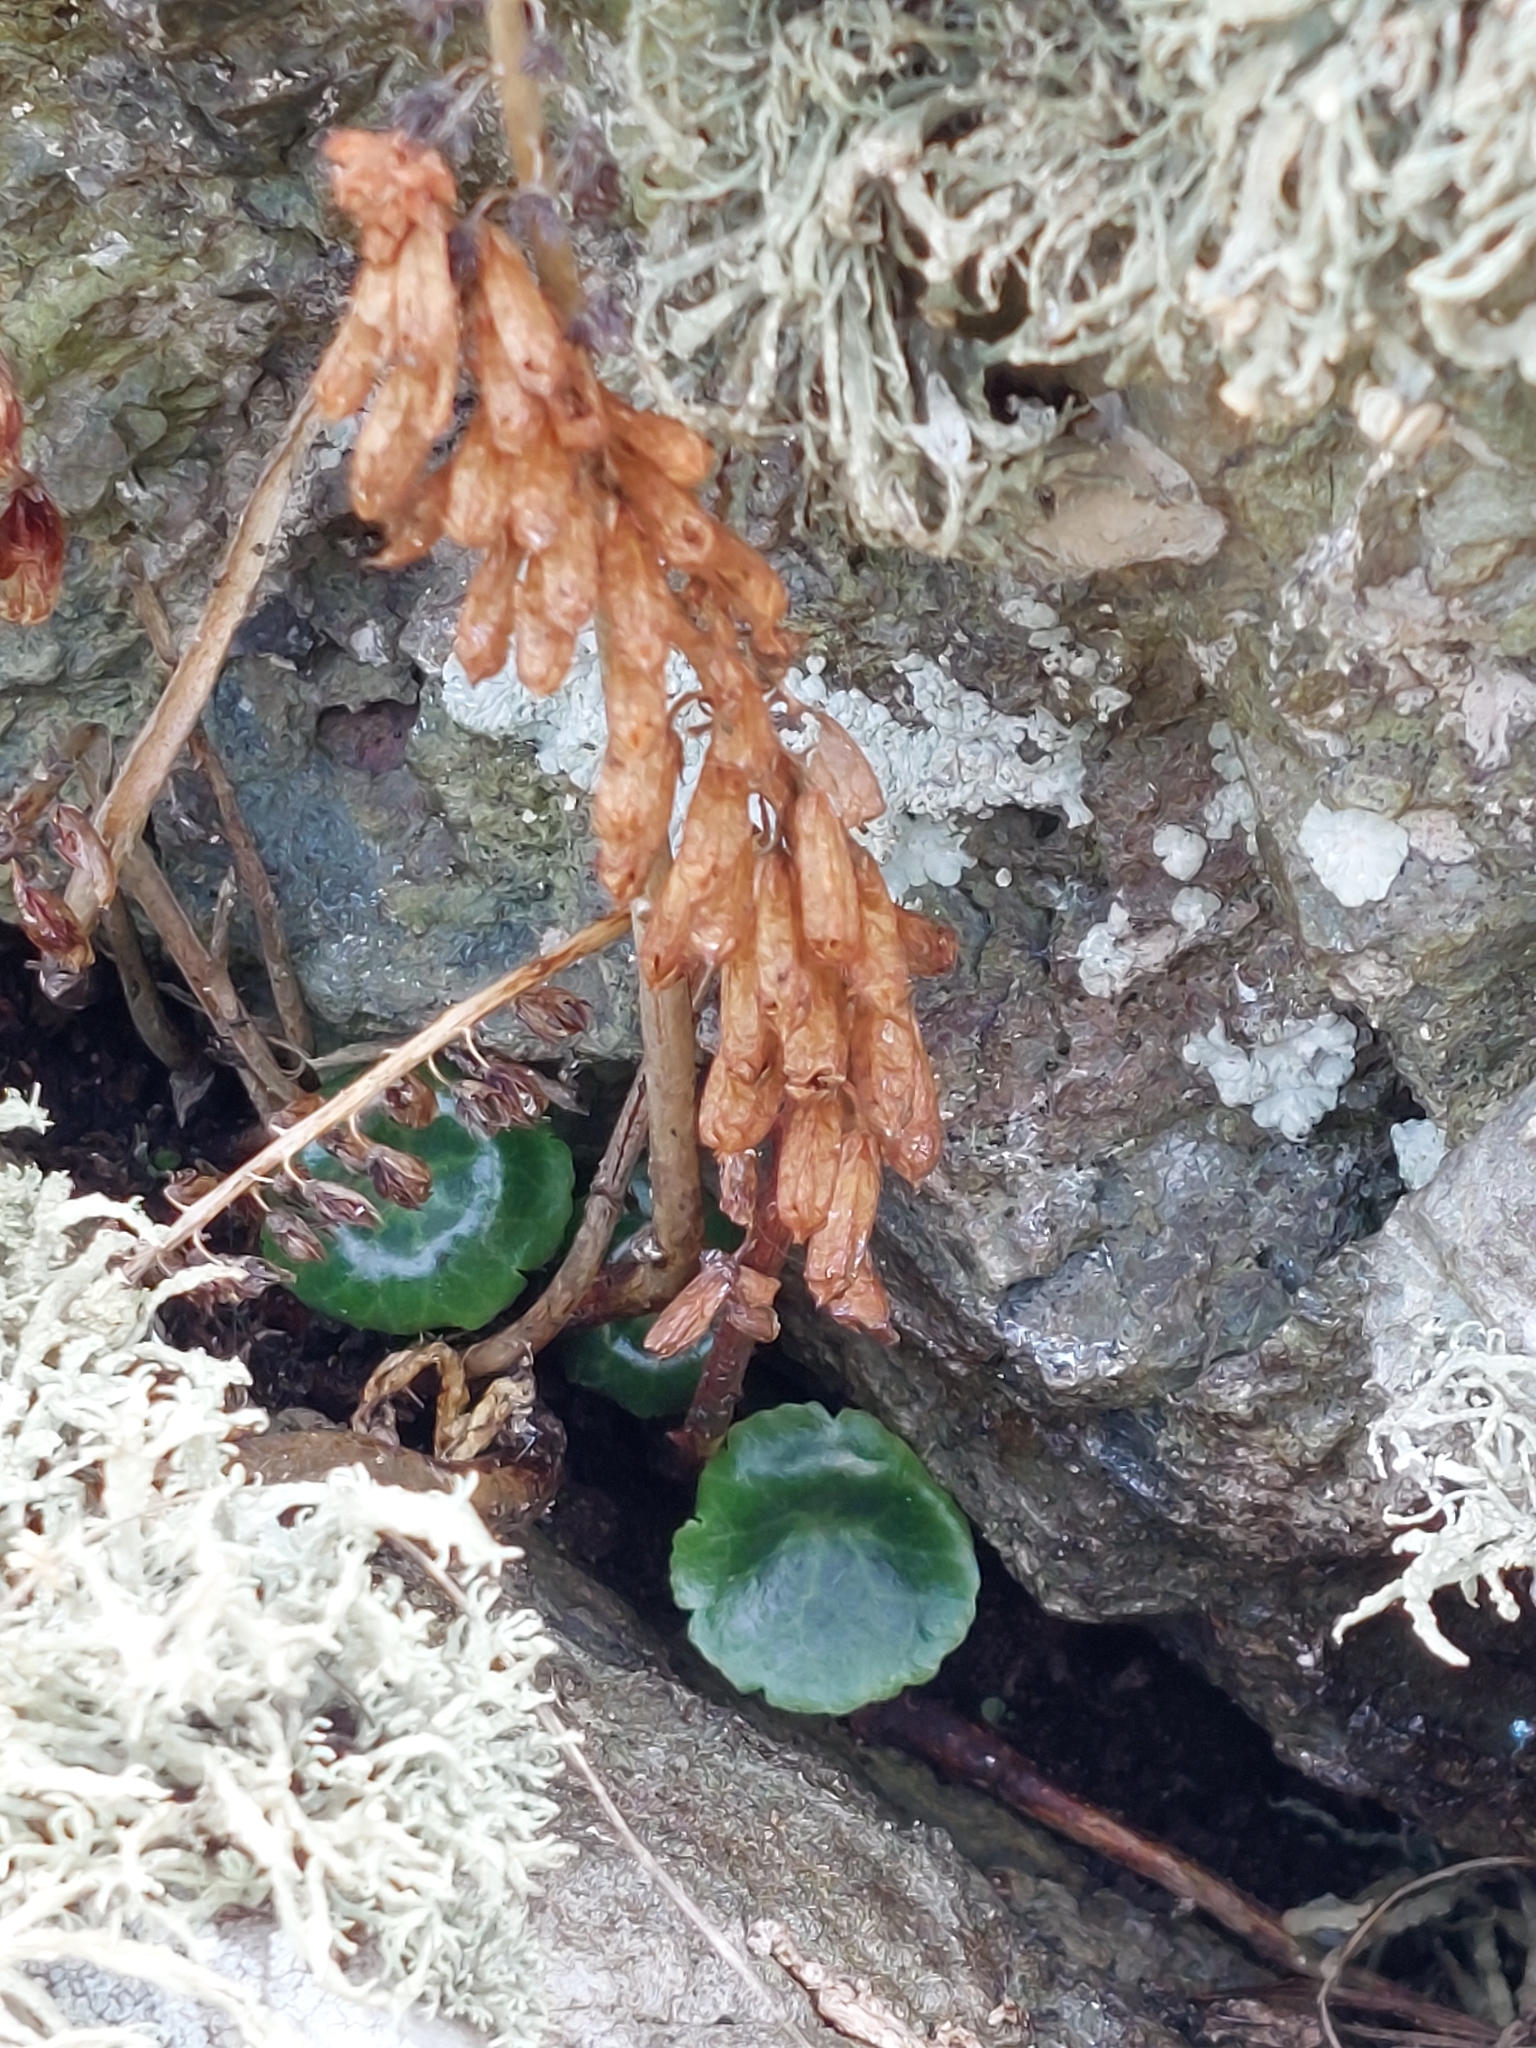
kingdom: Plantae
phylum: Tracheophyta
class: Magnoliopsida
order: Saxifragales
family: Crassulaceae
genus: Umbilicus
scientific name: Umbilicus rupestris
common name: Navelwort
